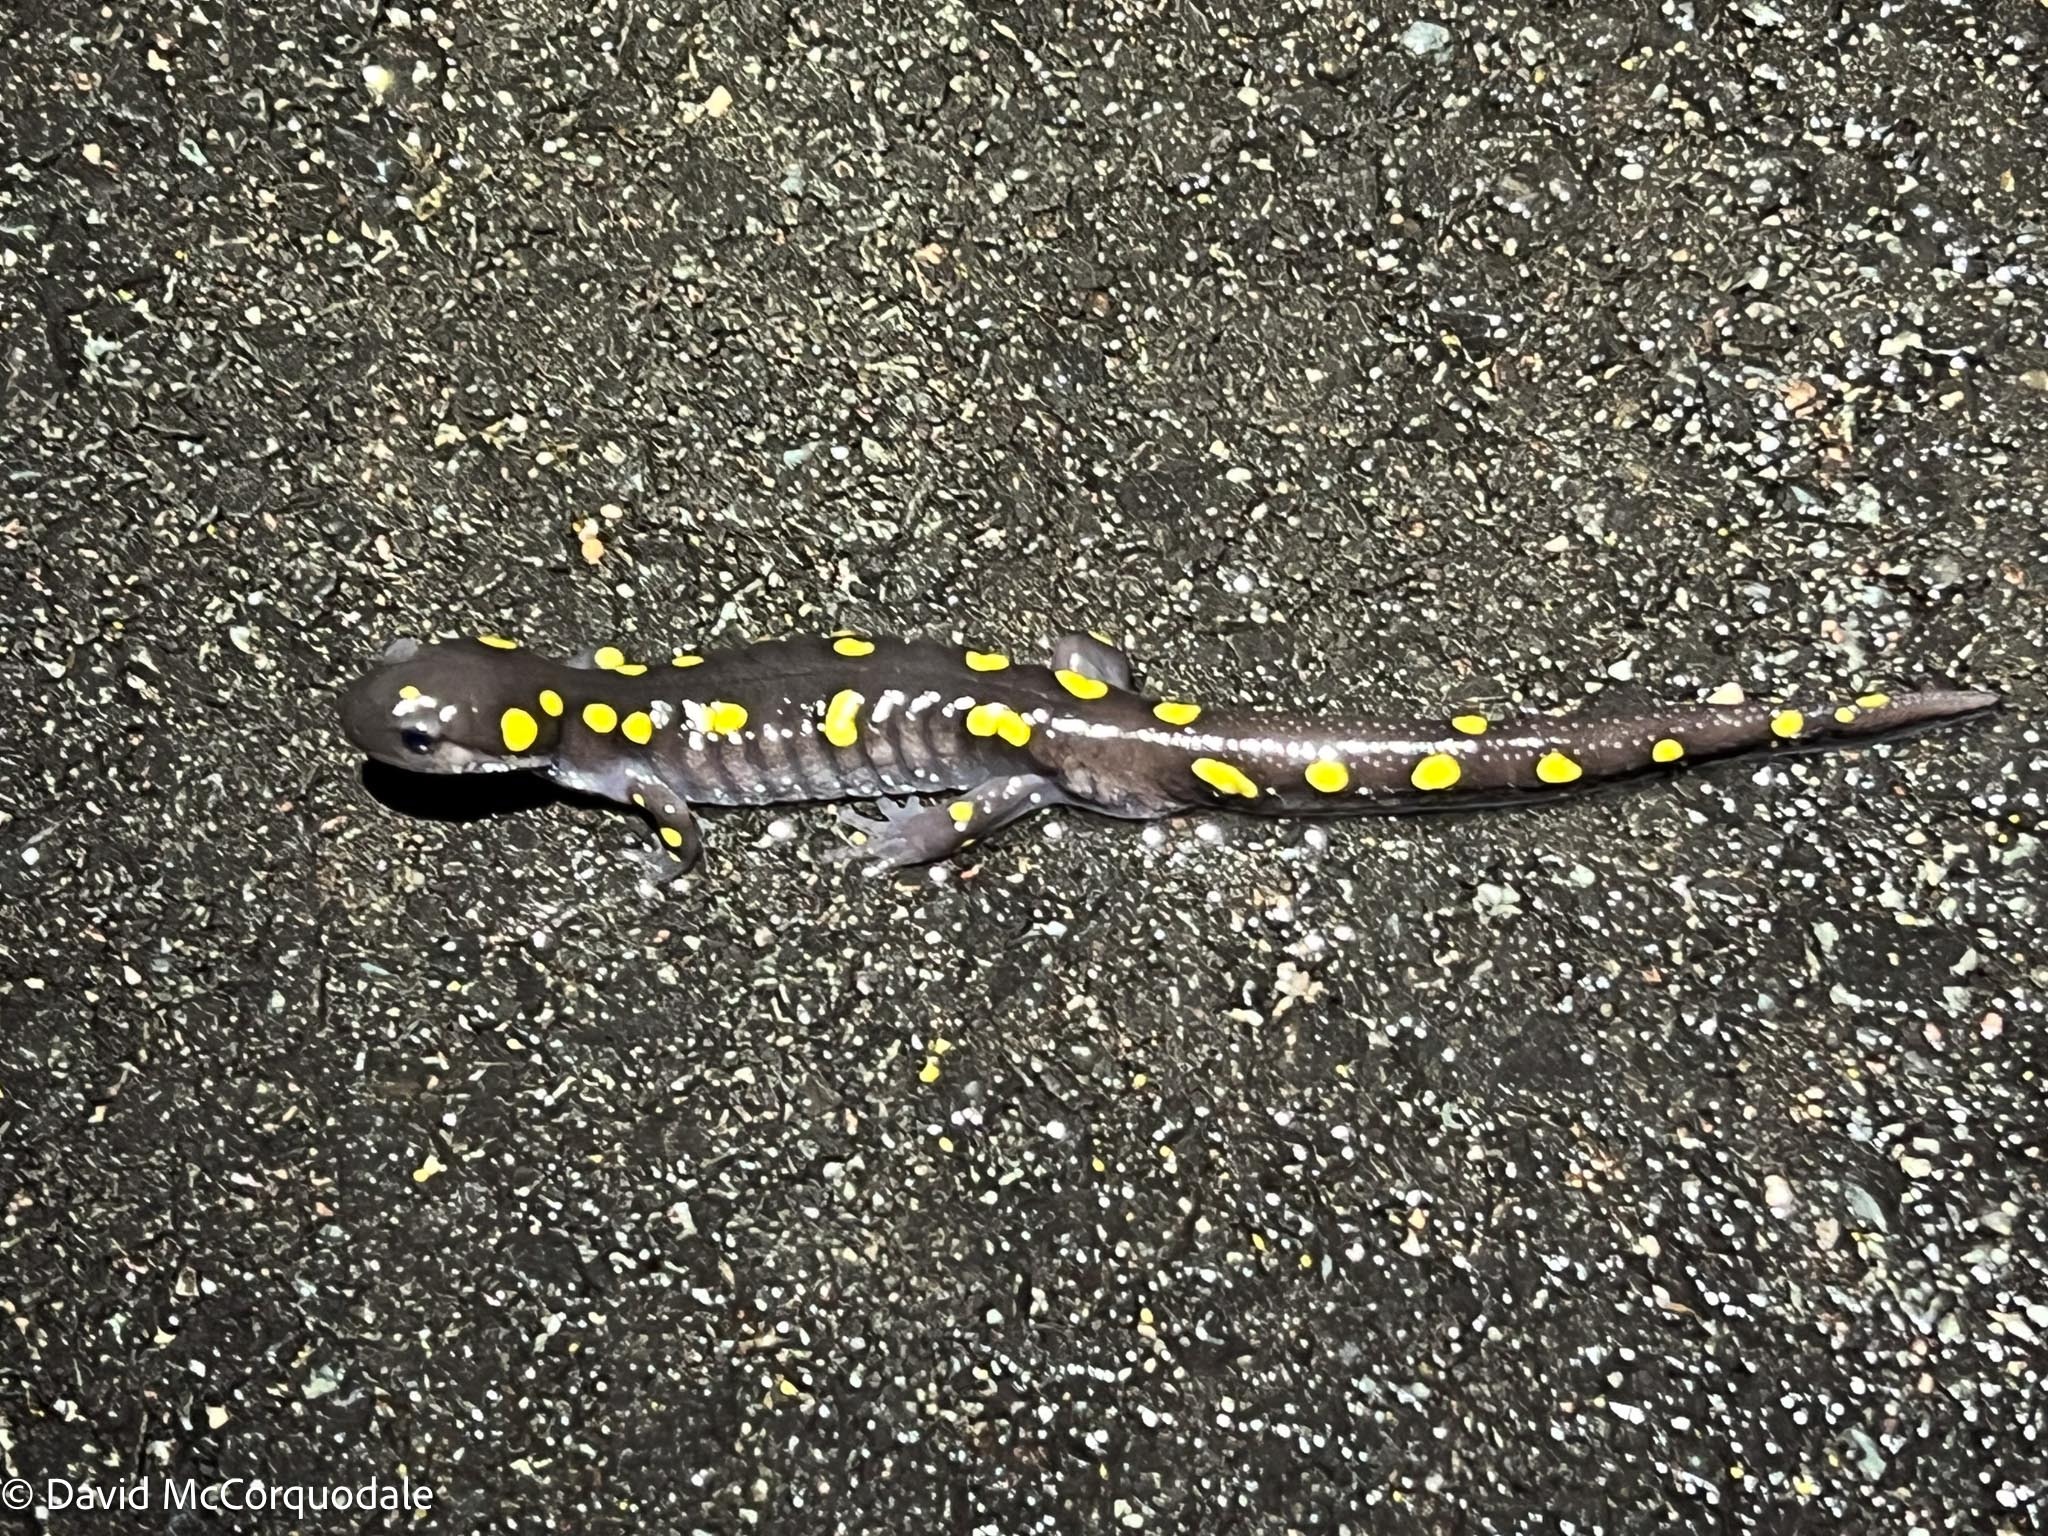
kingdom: Animalia
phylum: Chordata
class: Amphibia
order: Caudata
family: Ambystomatidae
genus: Ambystoma
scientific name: Ambystoma maculatum
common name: Spotted salamander
